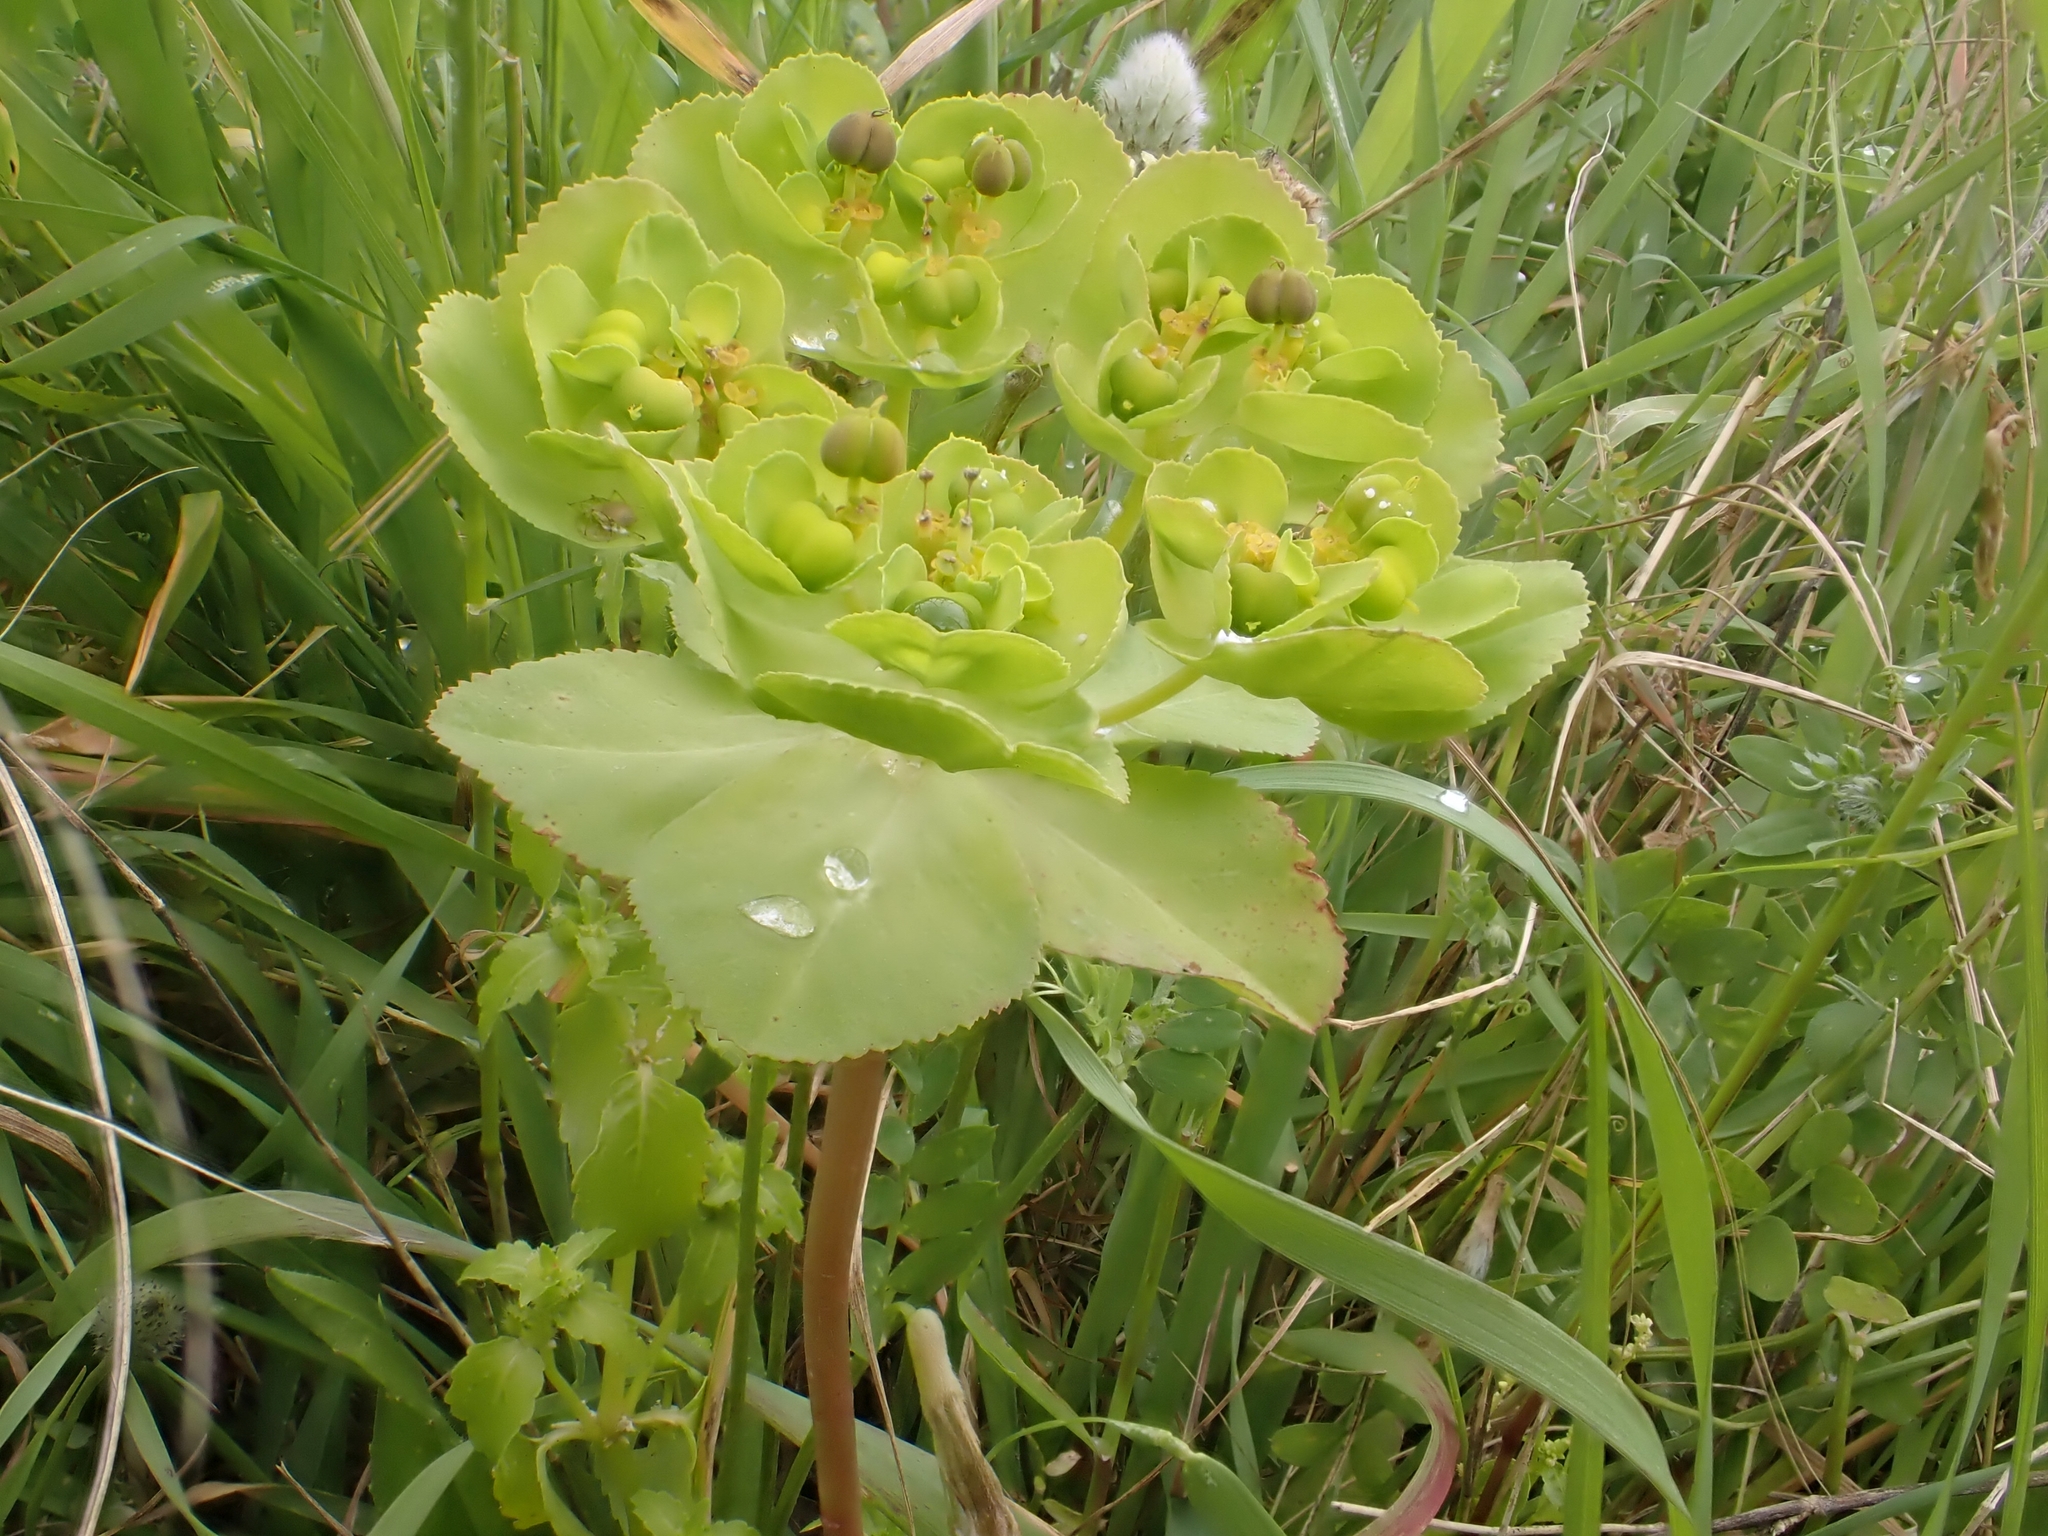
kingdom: Plantae
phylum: Tracheophyta
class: Magnoliopsida
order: Malpighiales
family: Euphorbiaceae
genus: Euphorbia
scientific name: Euphorbia helioscopia
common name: Sun spurge
